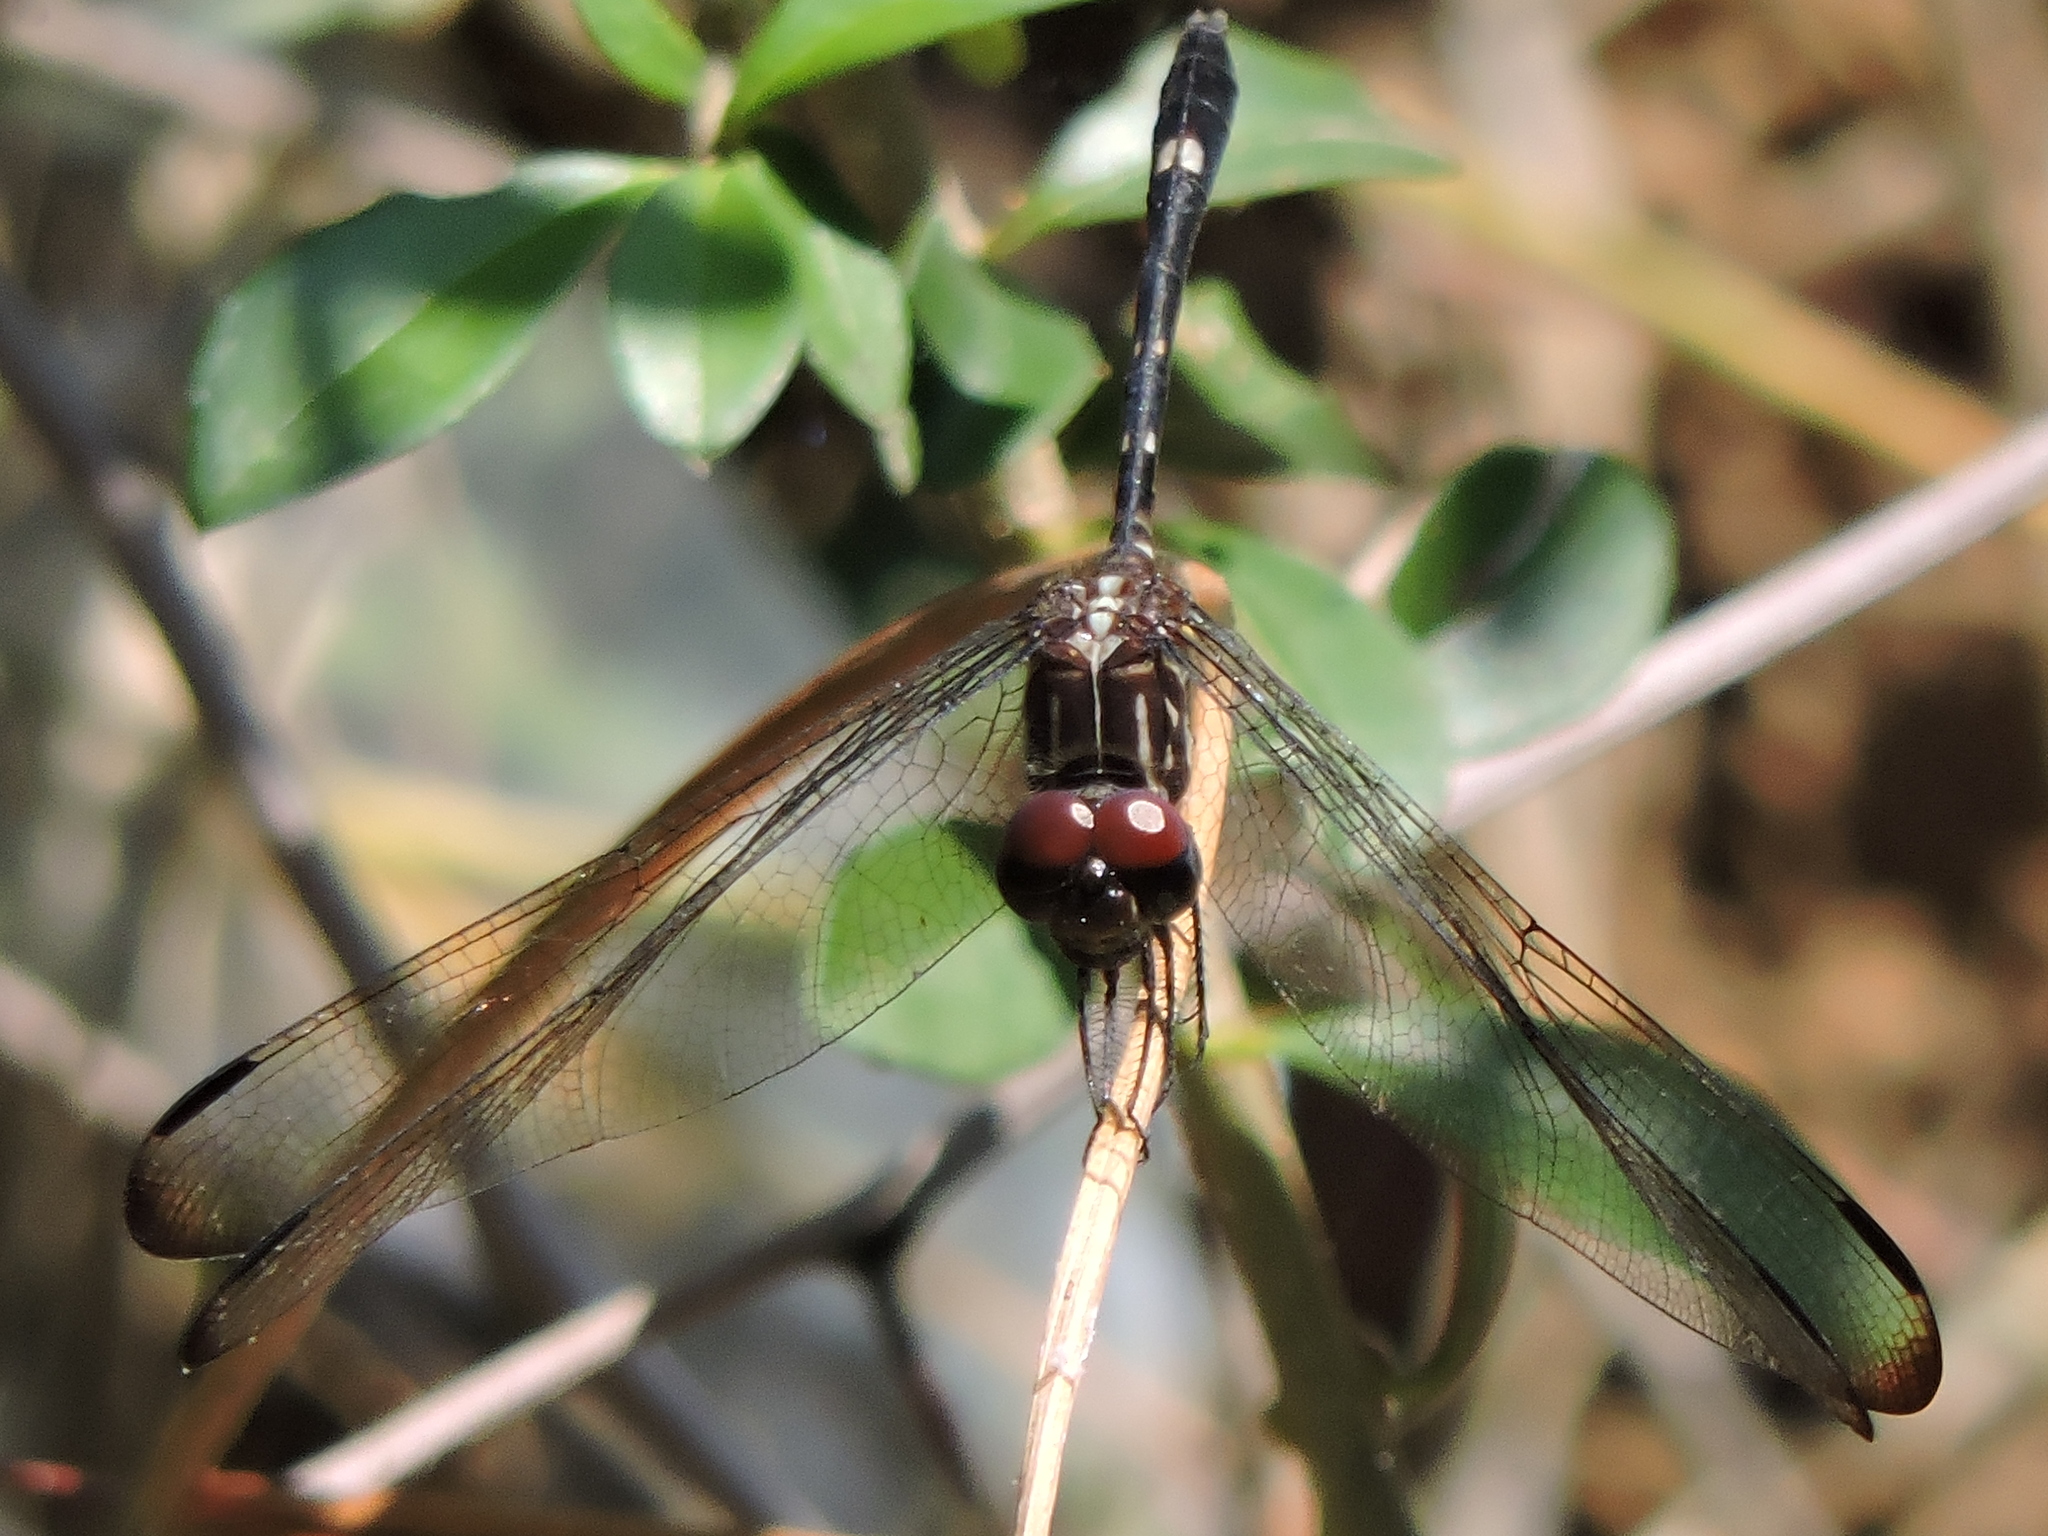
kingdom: Animalia
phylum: Arthropoda
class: Insecta
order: Odonata
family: Libellulidae
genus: Dythemis
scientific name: Dythemis velox
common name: Swift setwing
